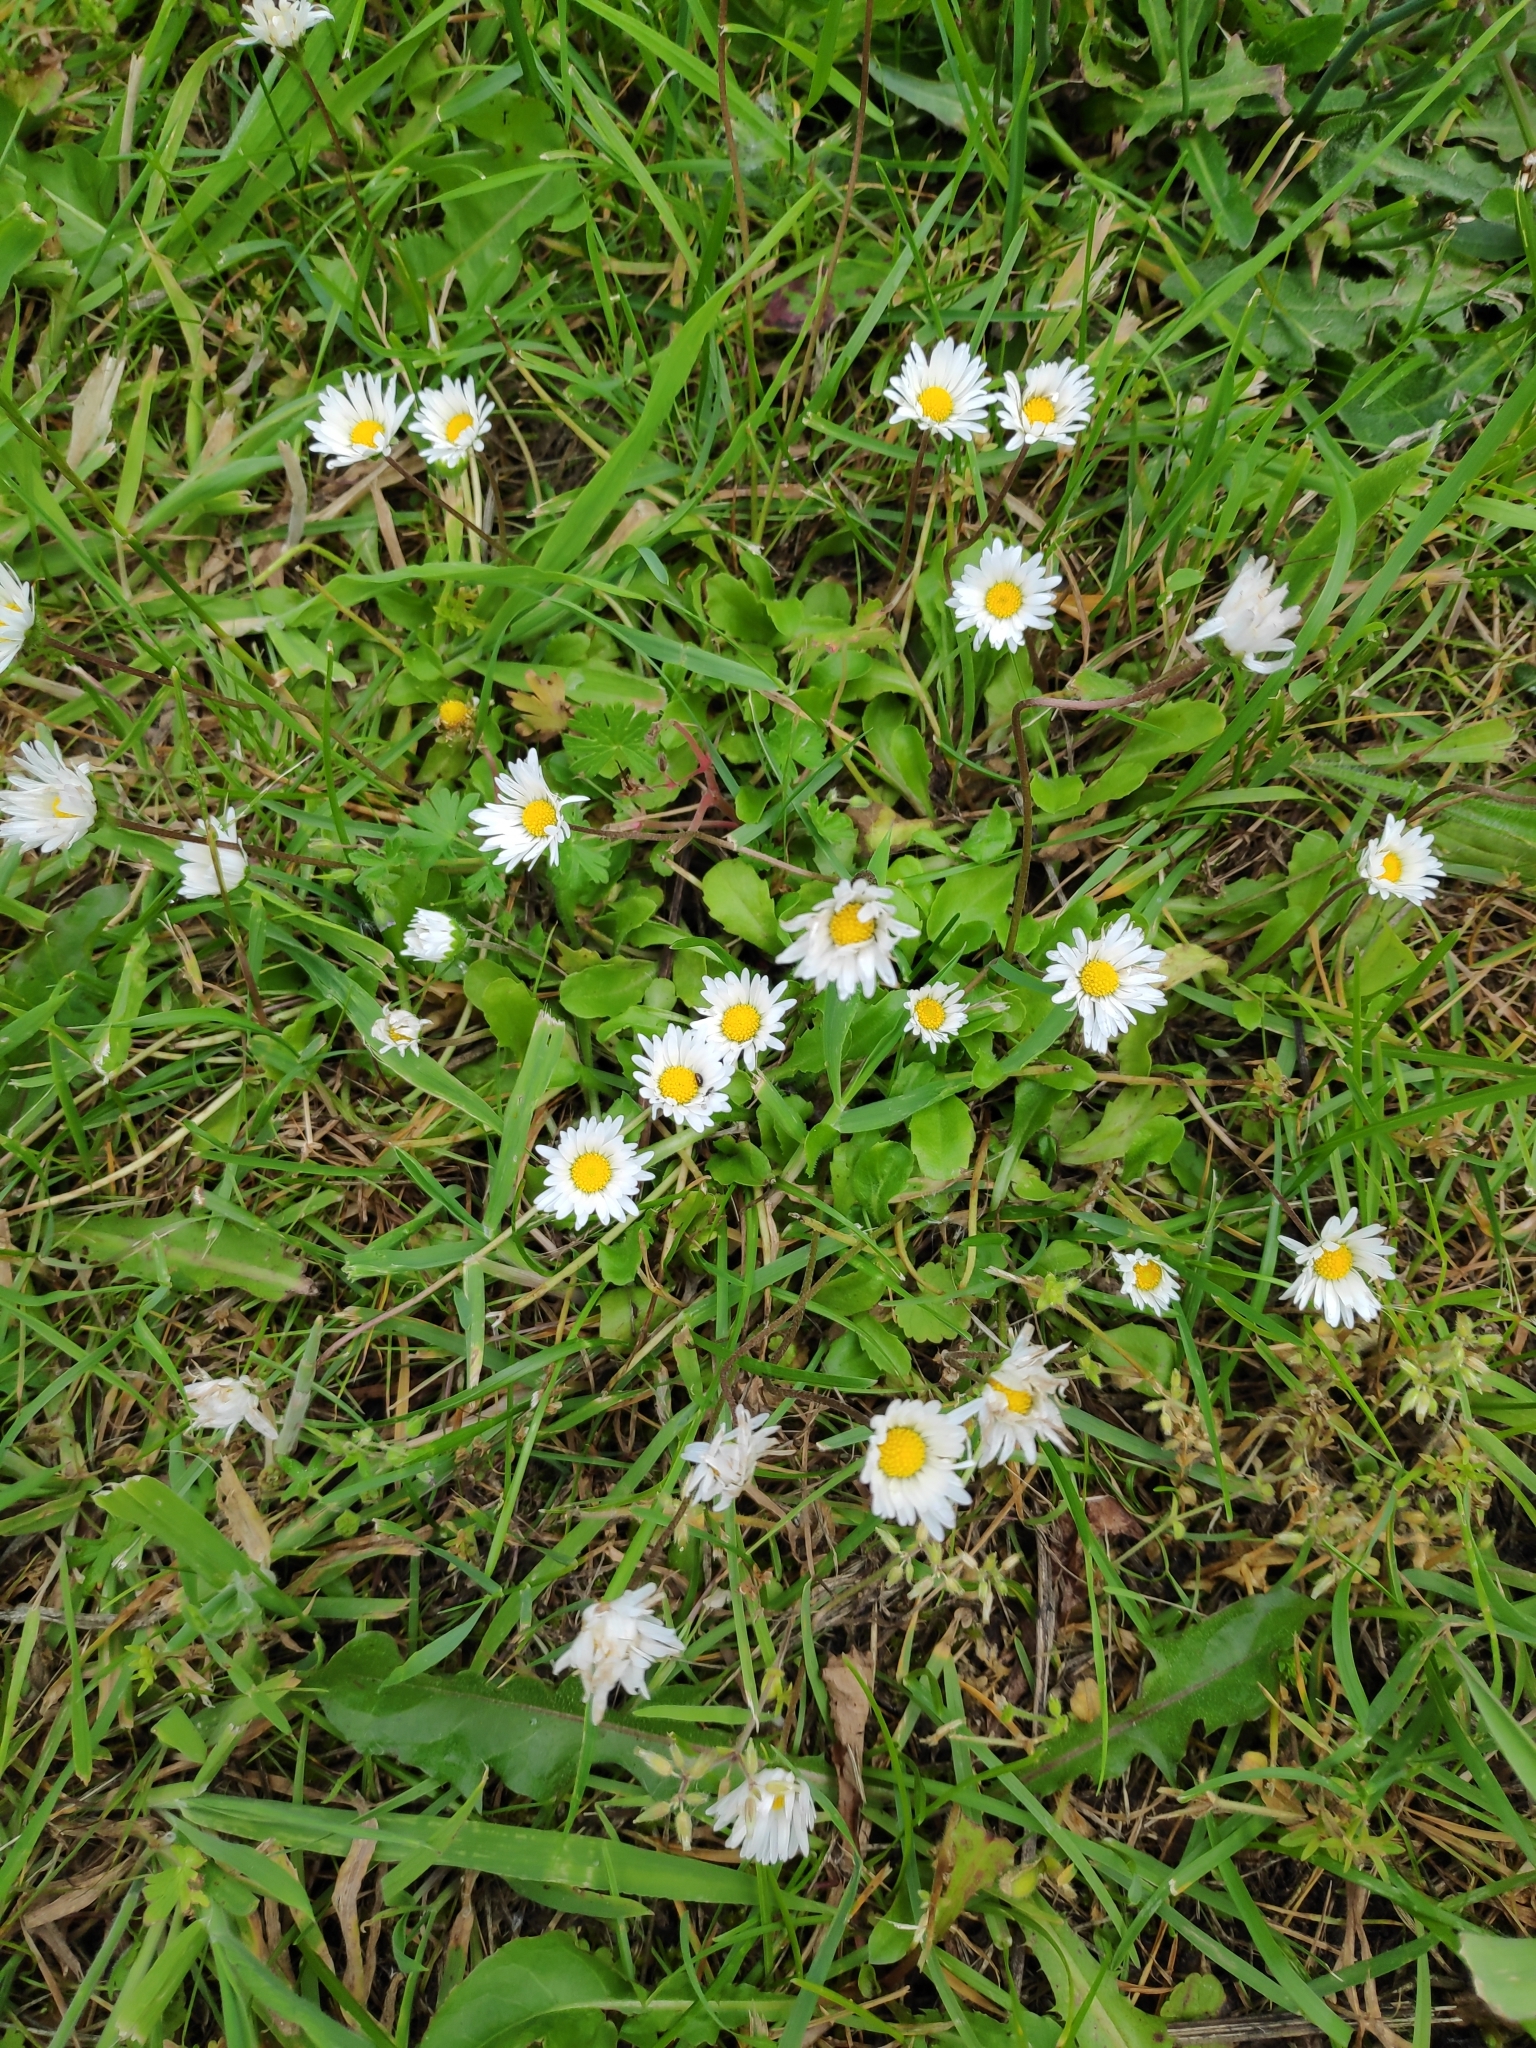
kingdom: Plantae
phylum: Tracheophyta
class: Magnoliopsida
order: Asterales
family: Asteraceae
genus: Bellis
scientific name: Bellis perennis
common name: Lawndaisy
